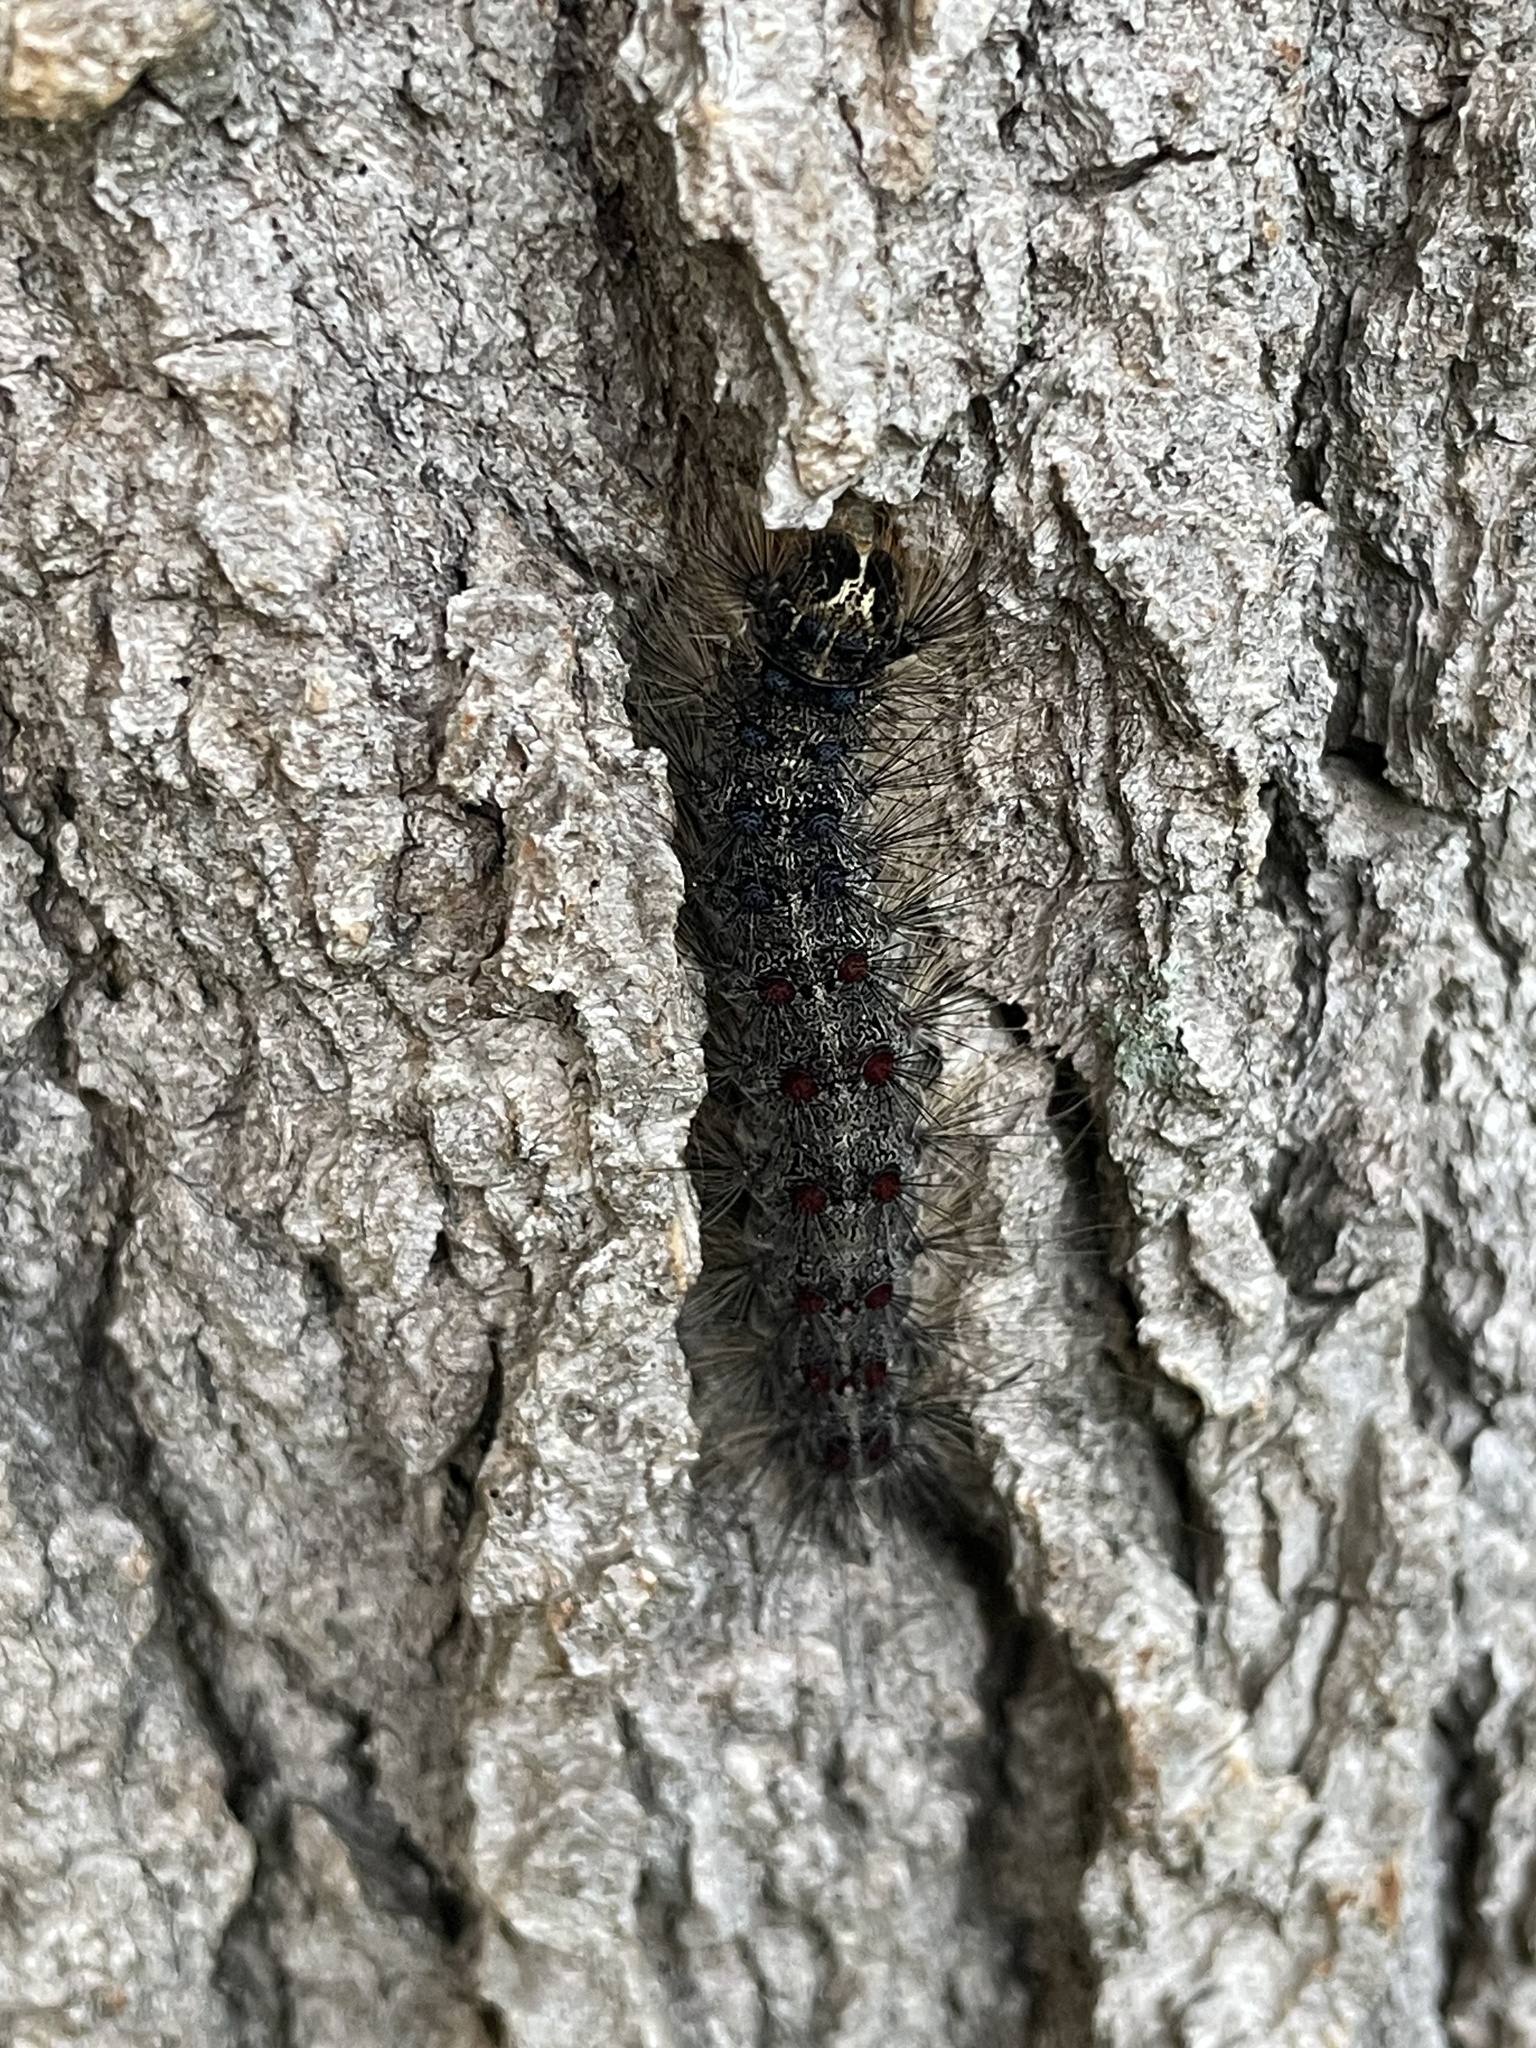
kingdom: Animalia
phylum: Arthropoda
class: Insecta
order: Lepidoptera
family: Erebidae
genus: Lymantria
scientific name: Lymantria dispar
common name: Gypsy moth
